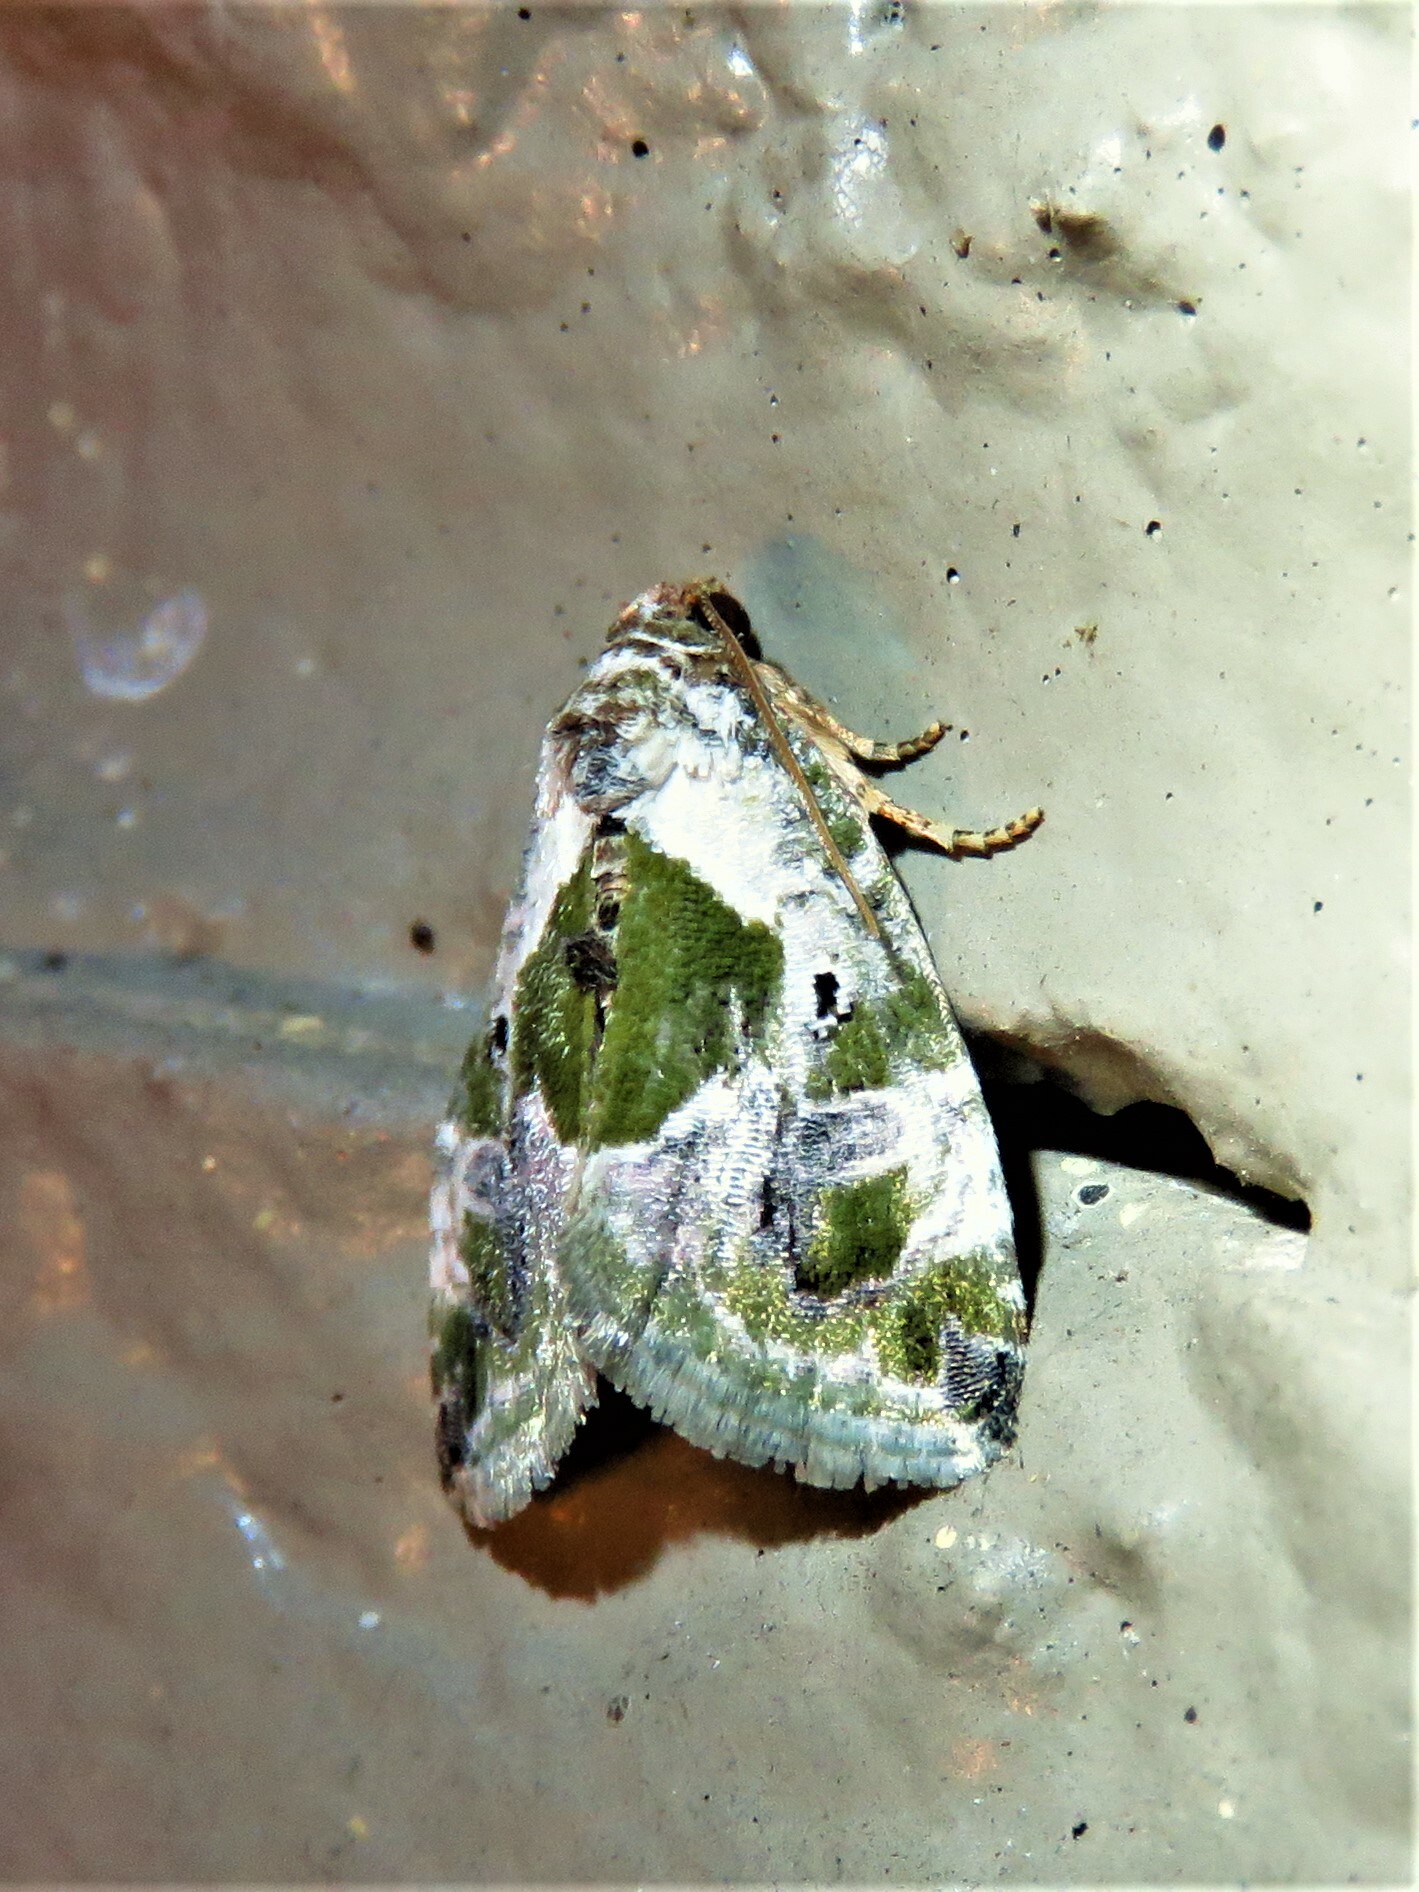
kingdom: Animalia
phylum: Arthropoda
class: Insecta
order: Lepidoptera
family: Noctuidae
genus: Maliattha
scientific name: Maliattha synochitis
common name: Black-dotted glyph
